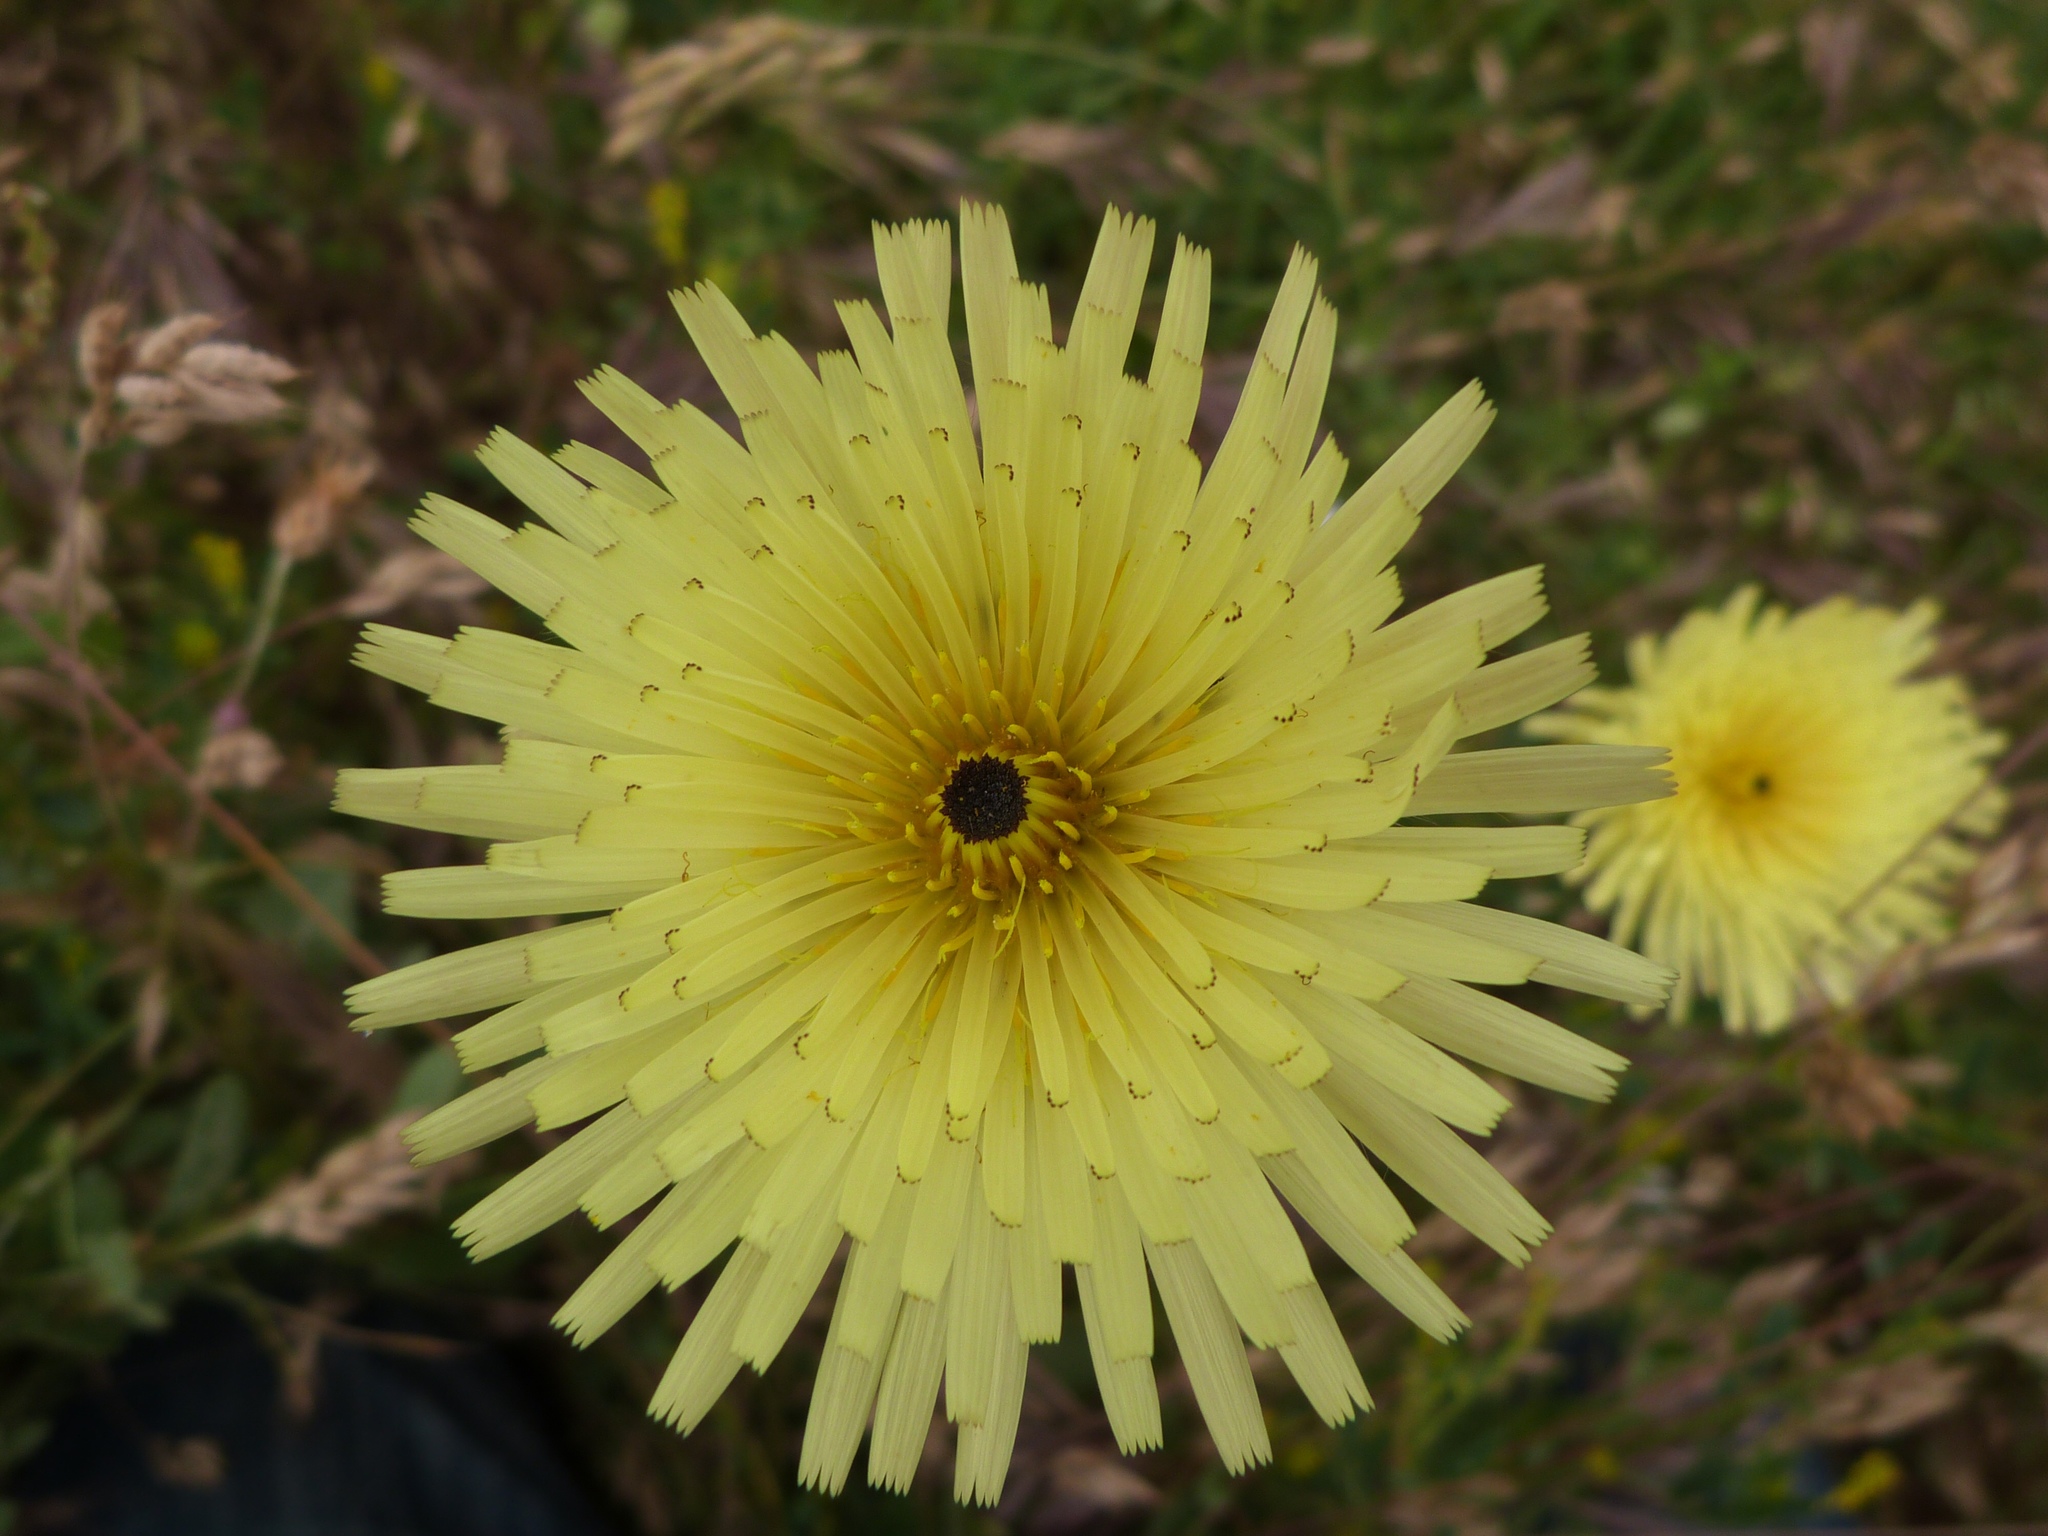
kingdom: Plantae
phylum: Tracheophyta
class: Magnoliopsida
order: Asterales
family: Asteraceae
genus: Urospermum
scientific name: Urospermum dalechampii
